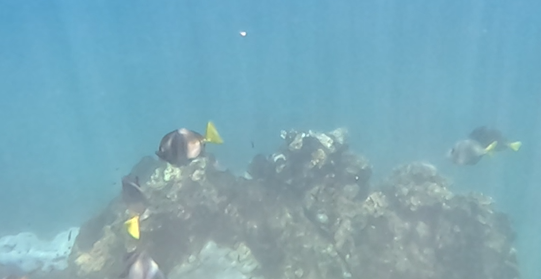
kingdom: Animalia
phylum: Chordata
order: Perciformes
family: Acanthuridae
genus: Prionurus
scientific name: Prionurus laticlavius
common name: Razor surgeonfish
